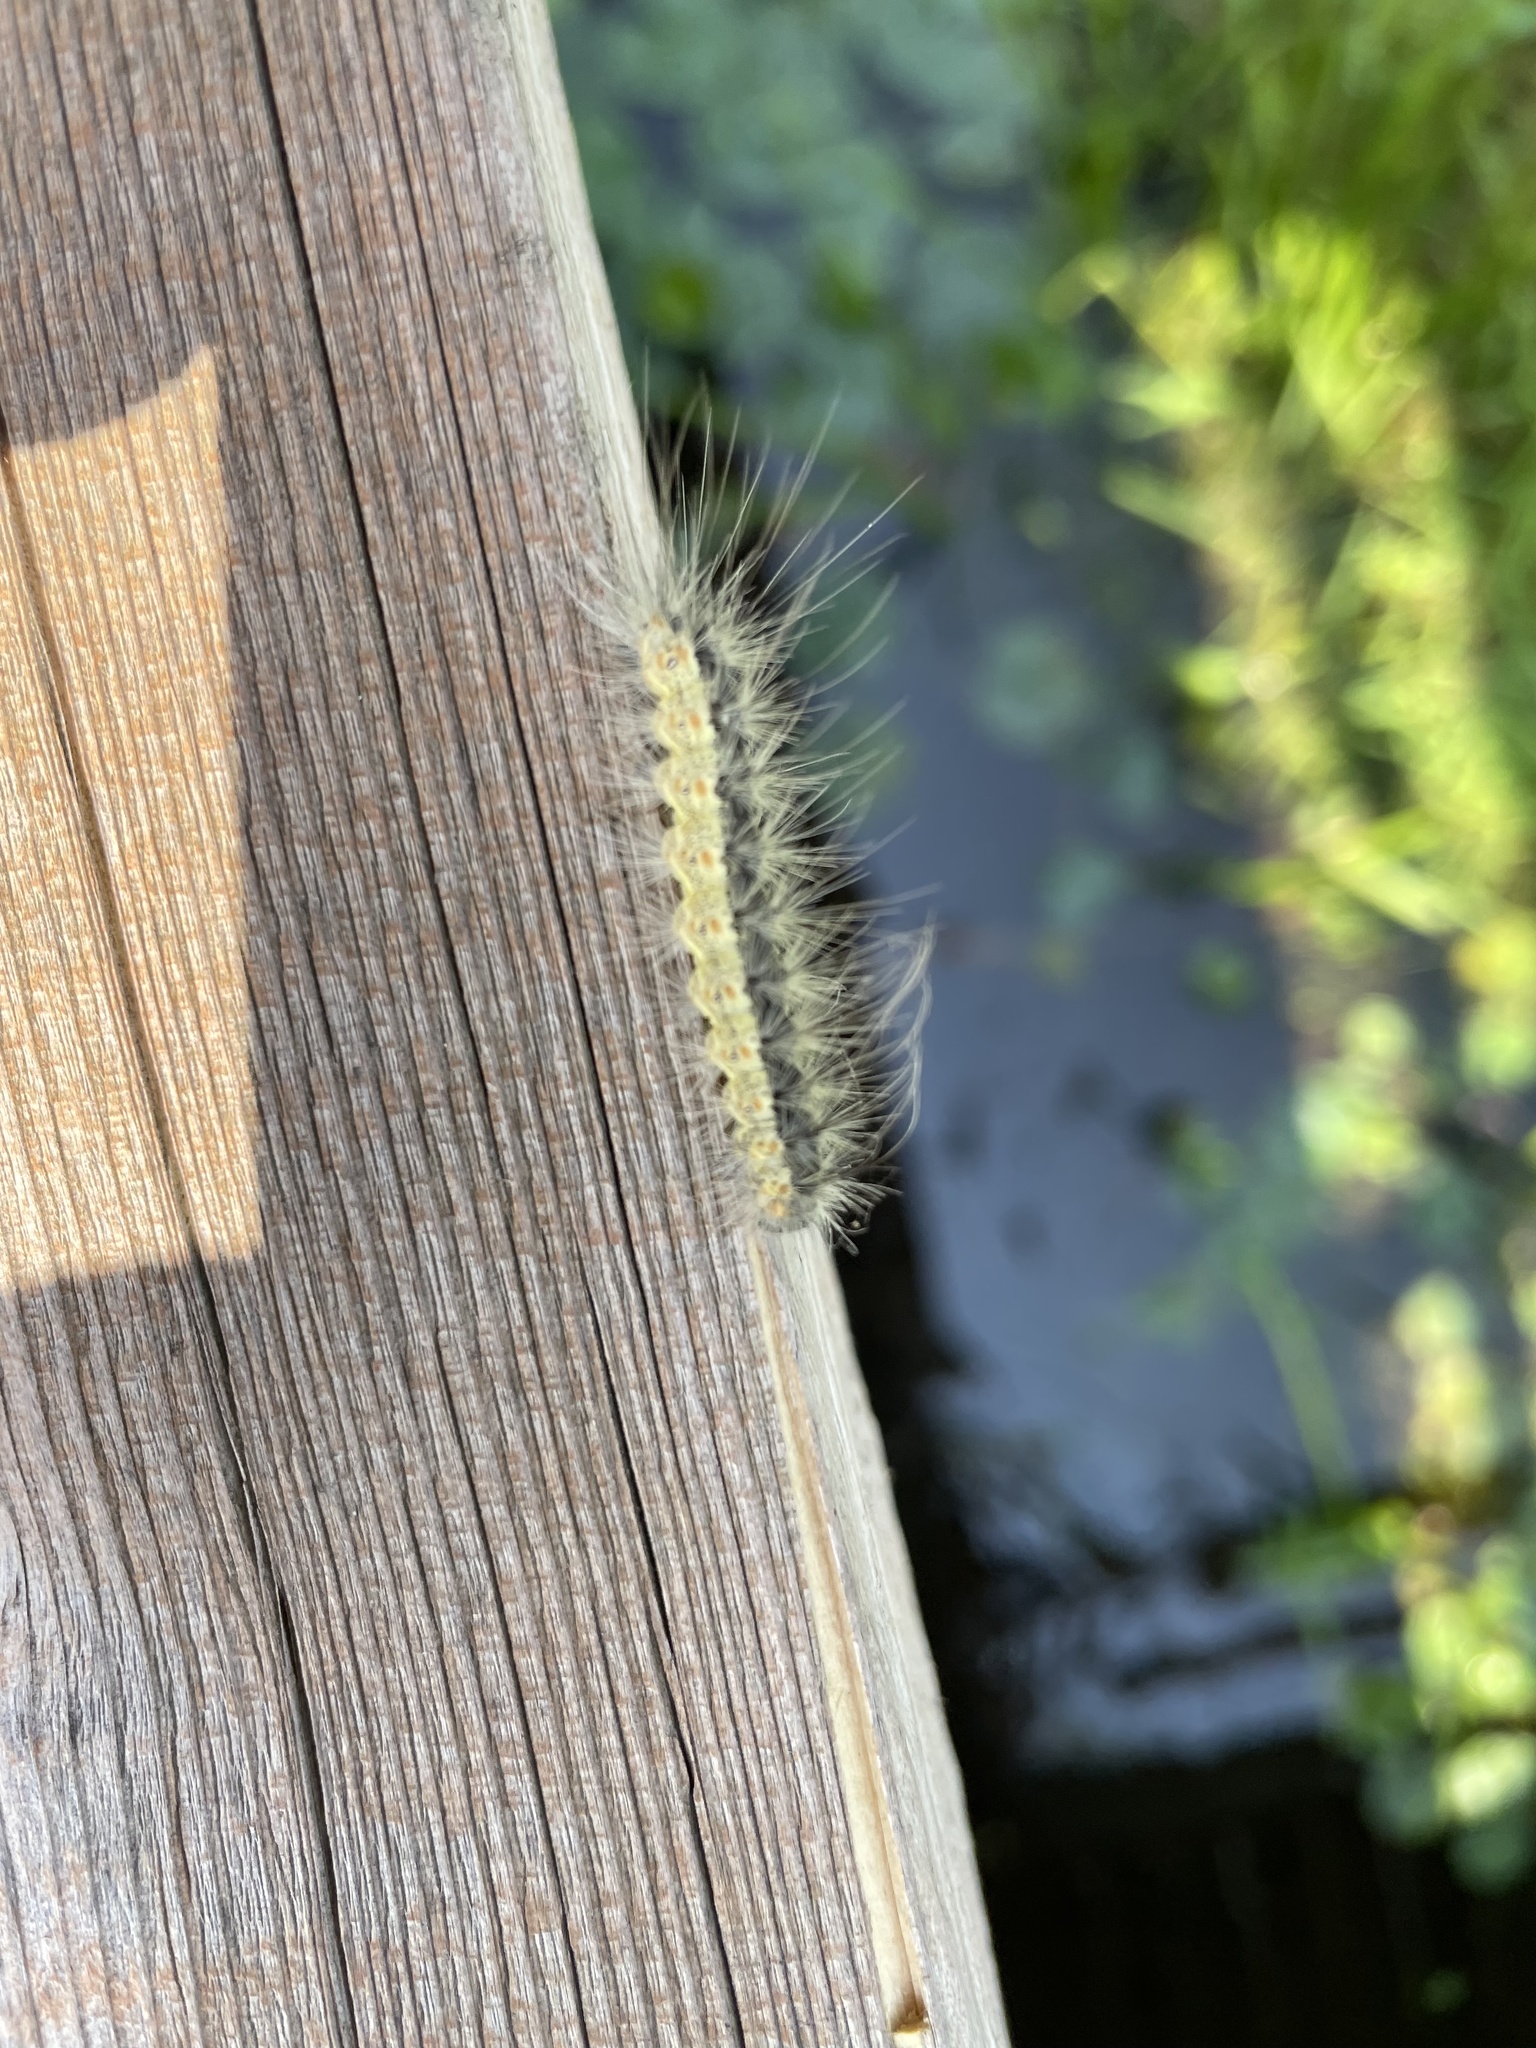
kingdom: Animalia
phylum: Arthropoda
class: Insecta
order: Lepidoptera
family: Erebidae
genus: Hyphantria
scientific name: Hyphantria cunea
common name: American white moth
